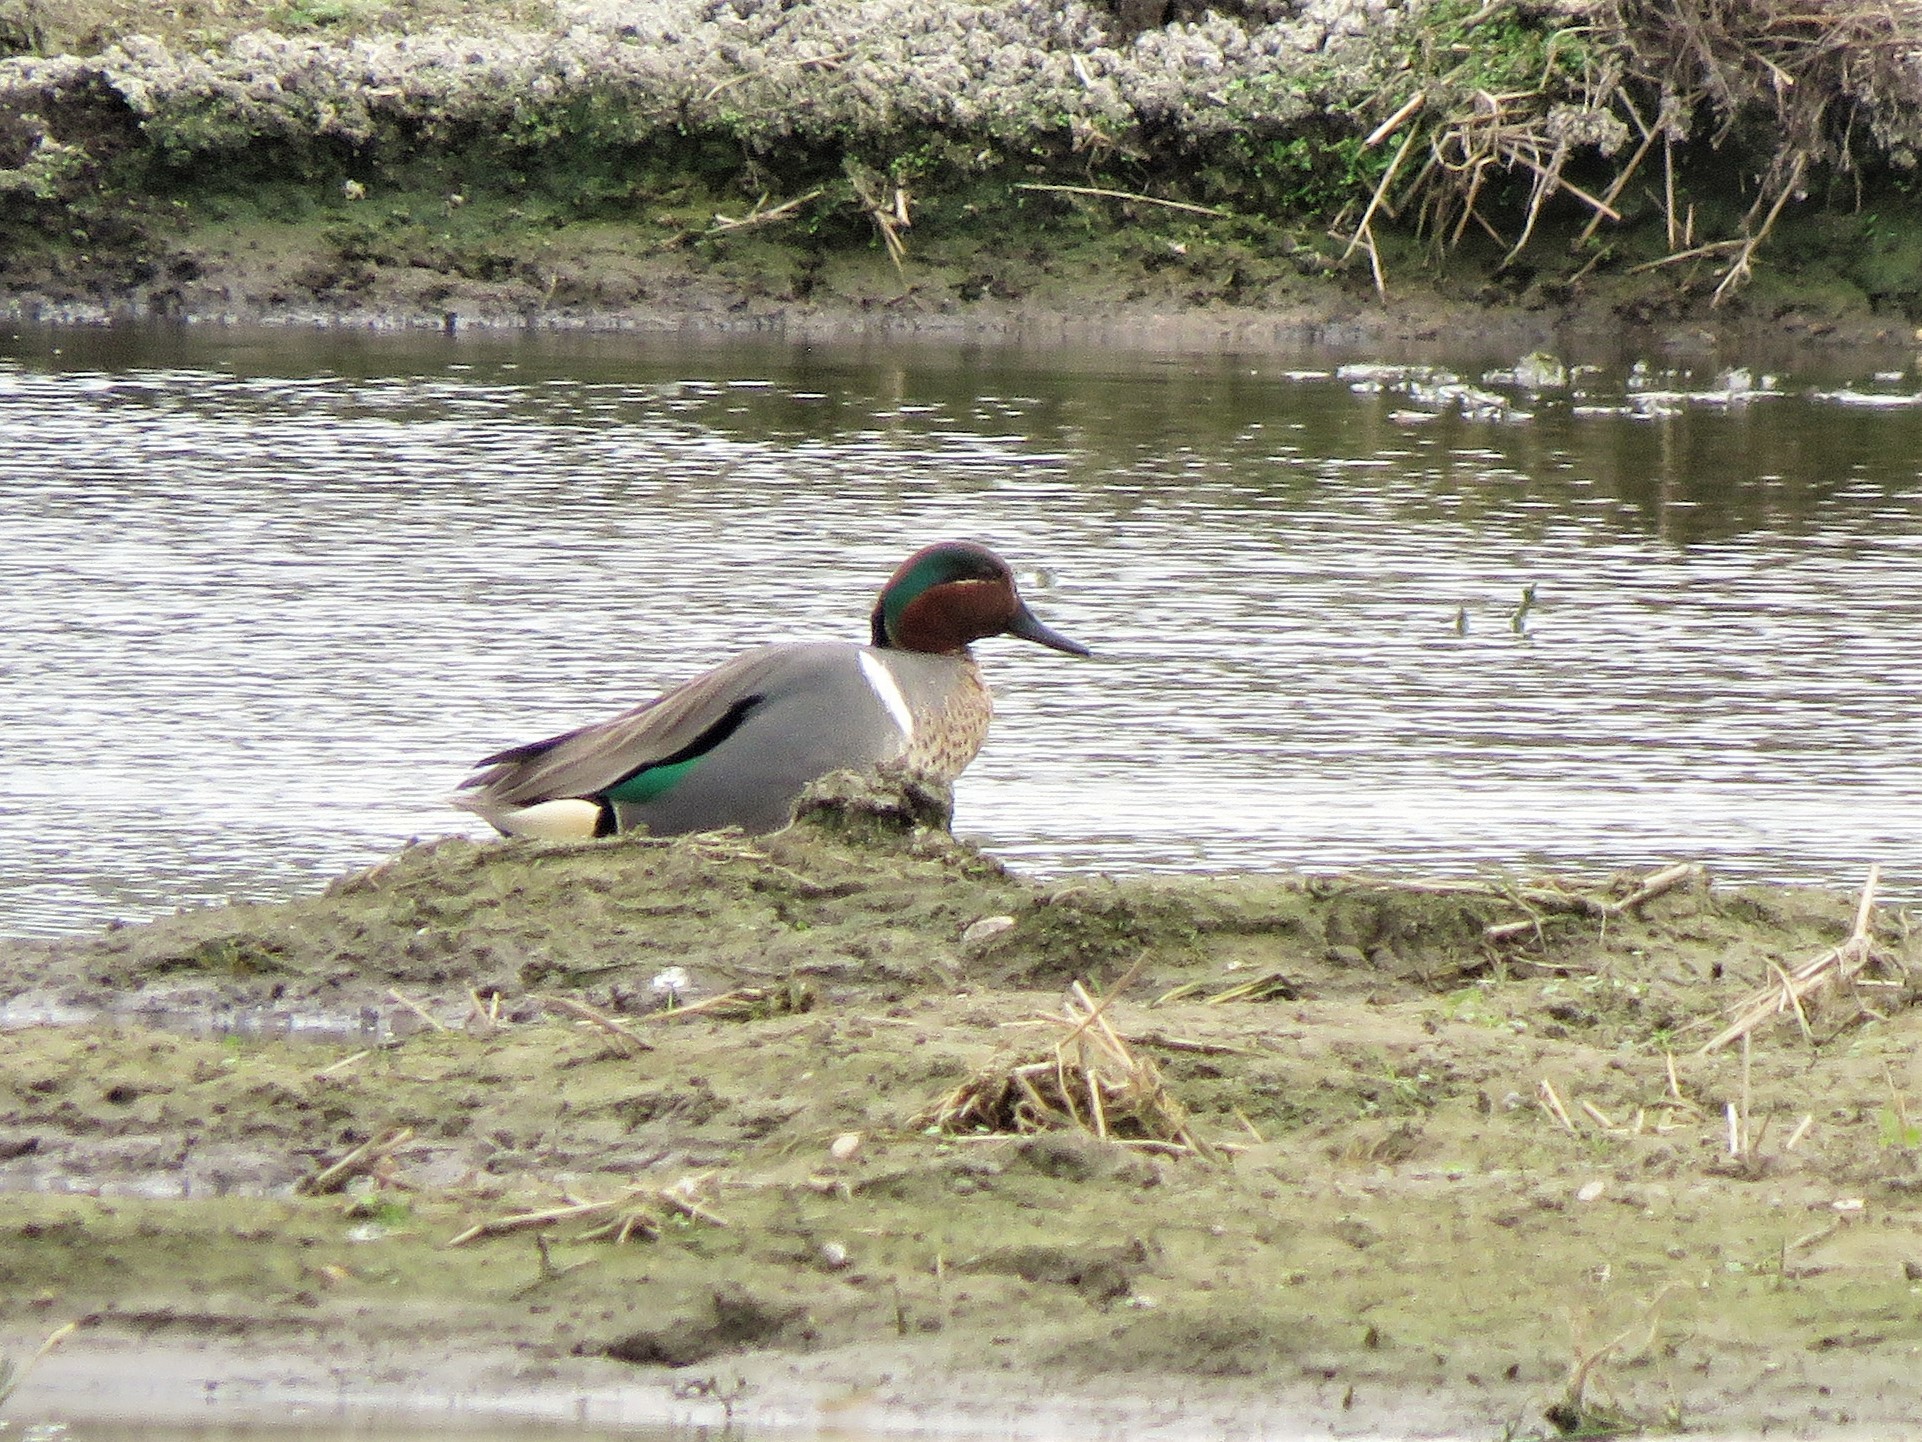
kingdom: Animalia
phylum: Chordata
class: Aves
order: Anseriformes
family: Anatidae
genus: Anas
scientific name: Anas crecca
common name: Eurasian teal
